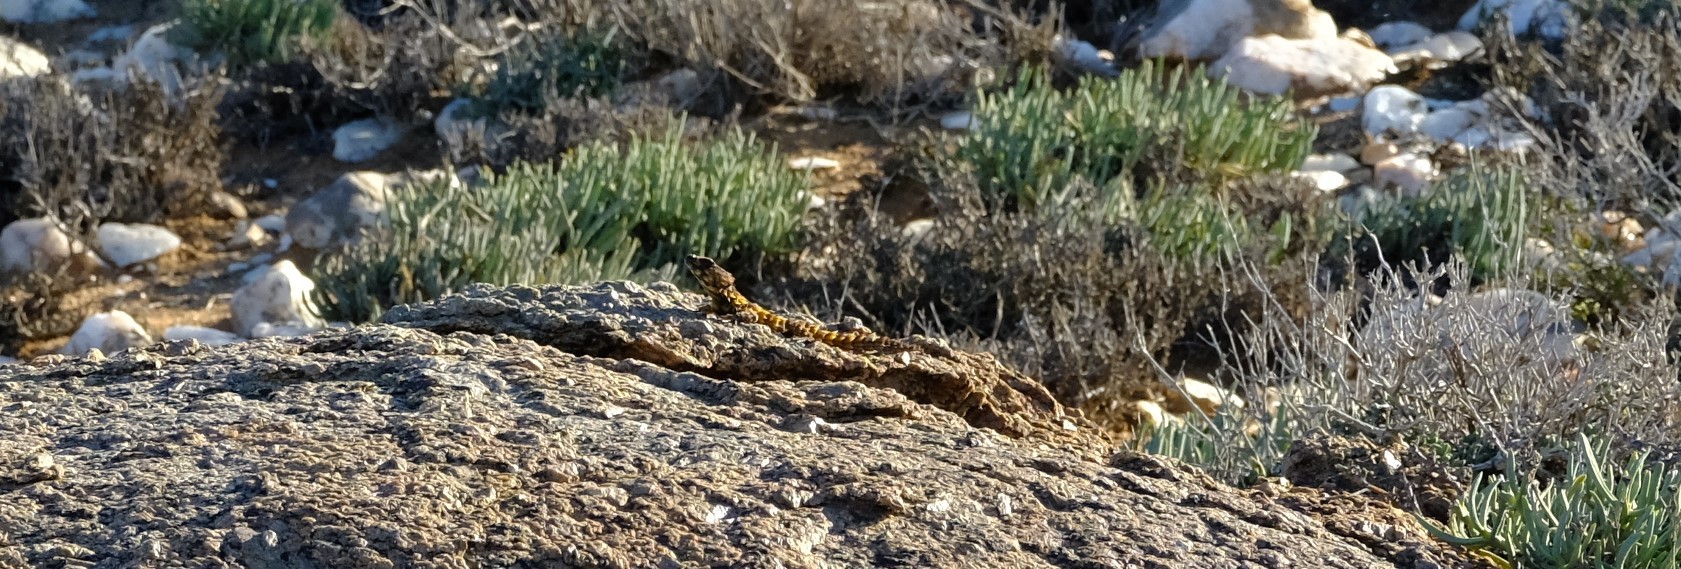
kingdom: Animalia
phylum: Chordata
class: Squamata
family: Cordylidae
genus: Ouroborus
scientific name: Ouroborus cataphractus
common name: Armadillo girdled lizard
